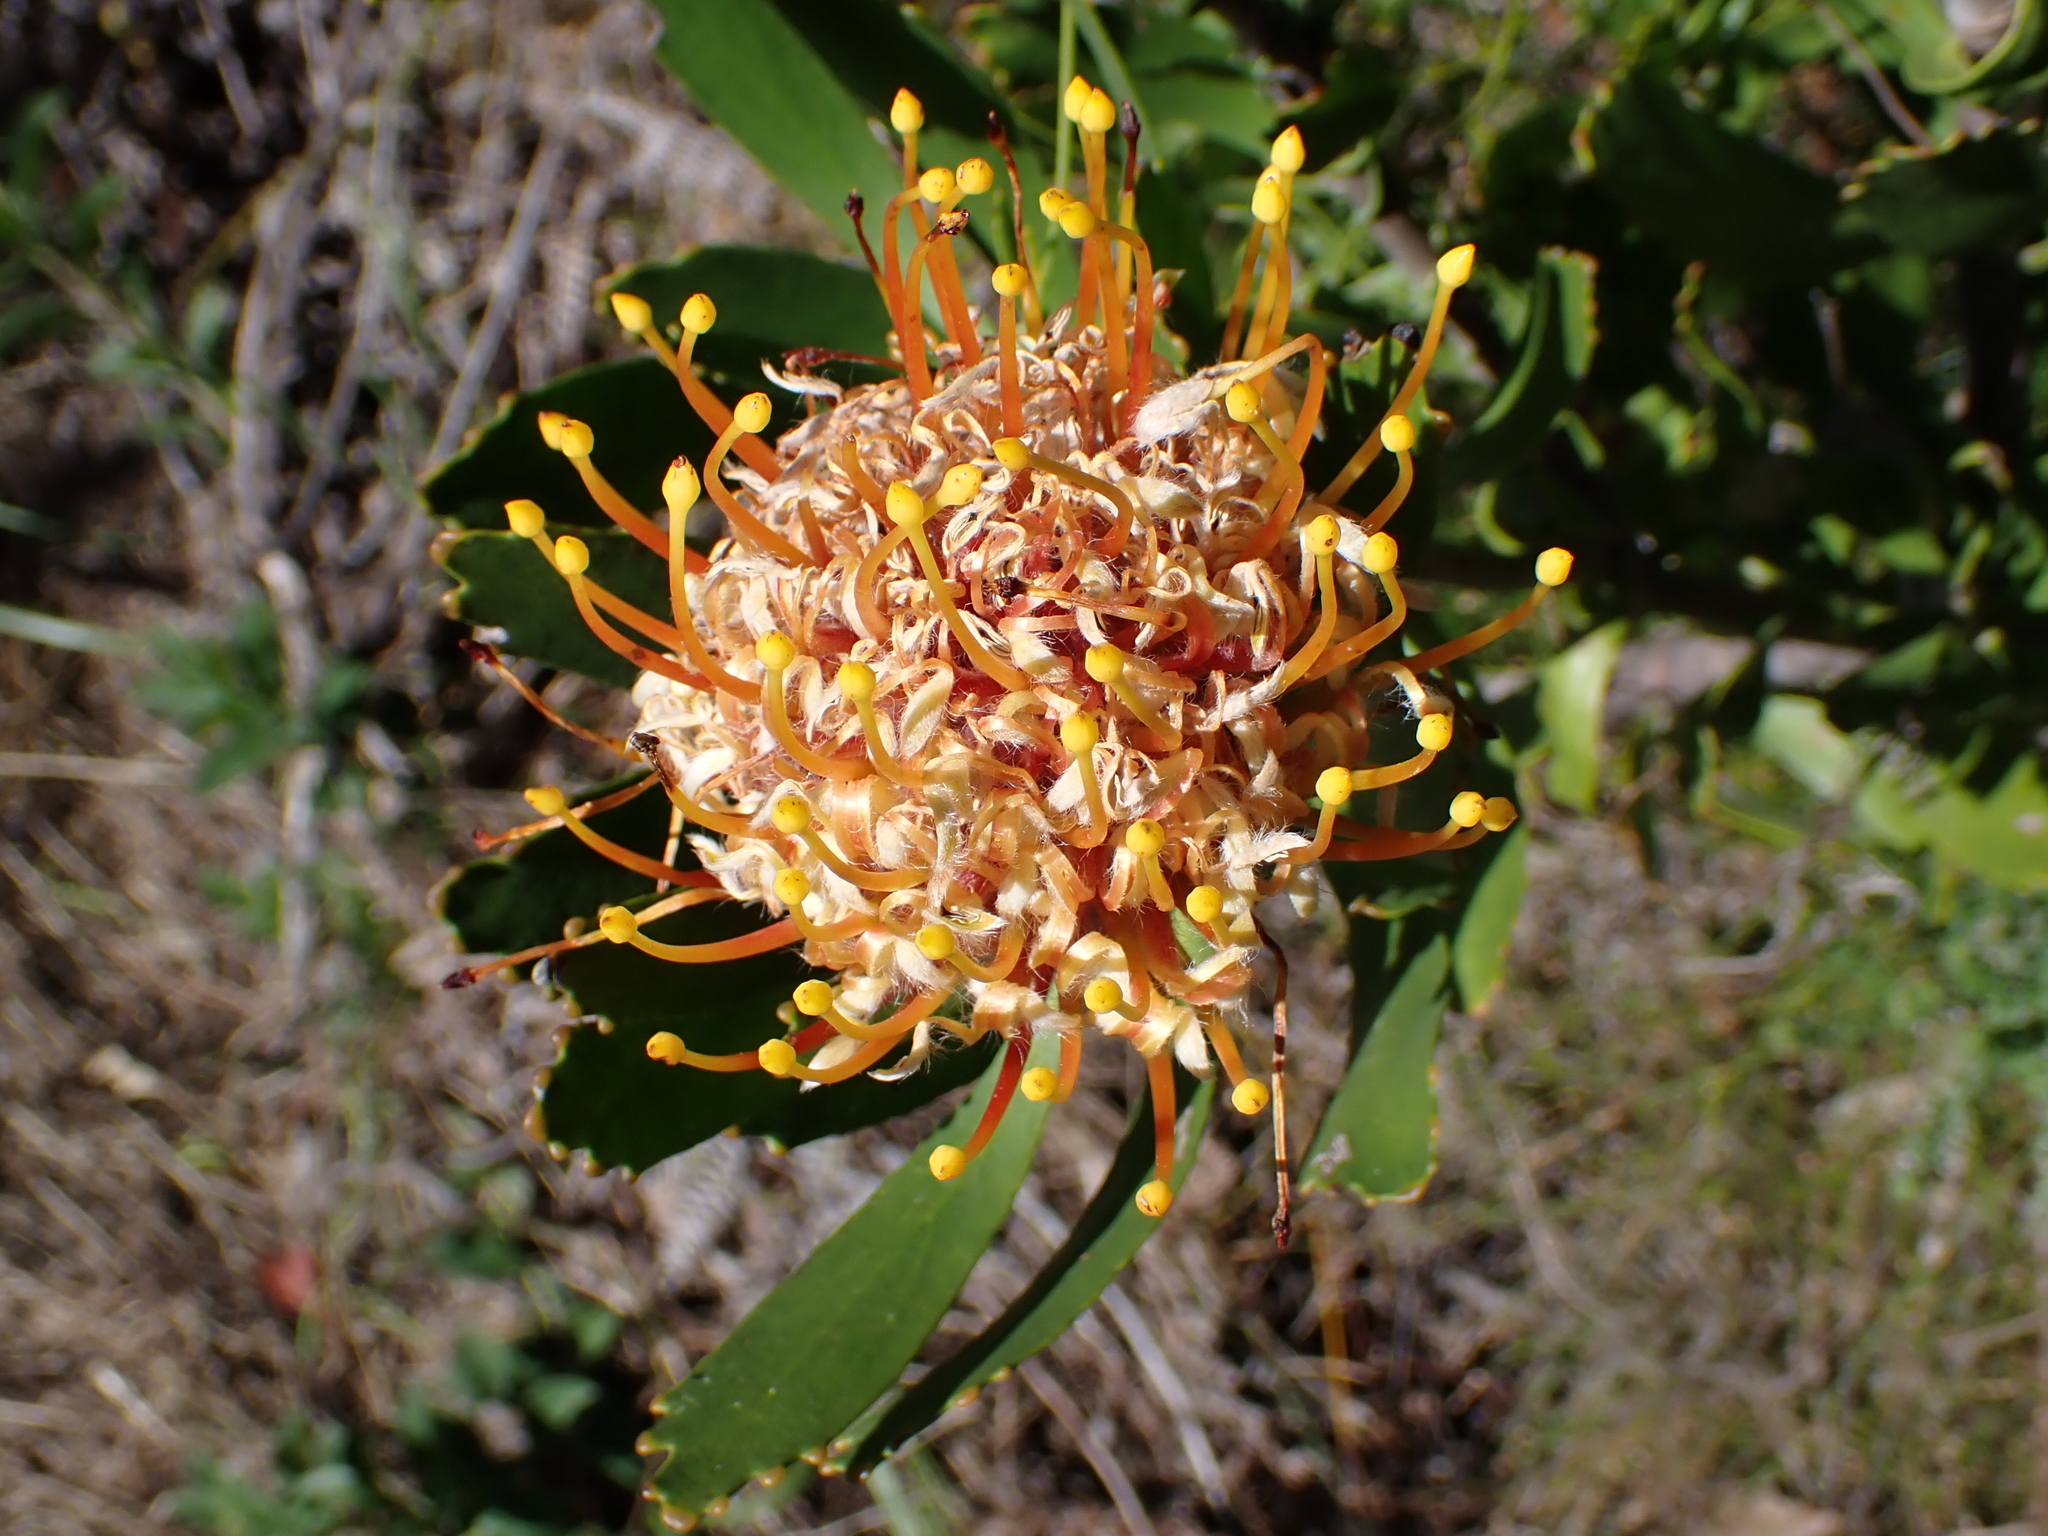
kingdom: Plantae
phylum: Tracheophyta
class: Magnoliopsida
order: Proteales
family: Proteaceae
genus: Leucospermum
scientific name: Leucospermum cuneiforme
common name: Common pincushion
